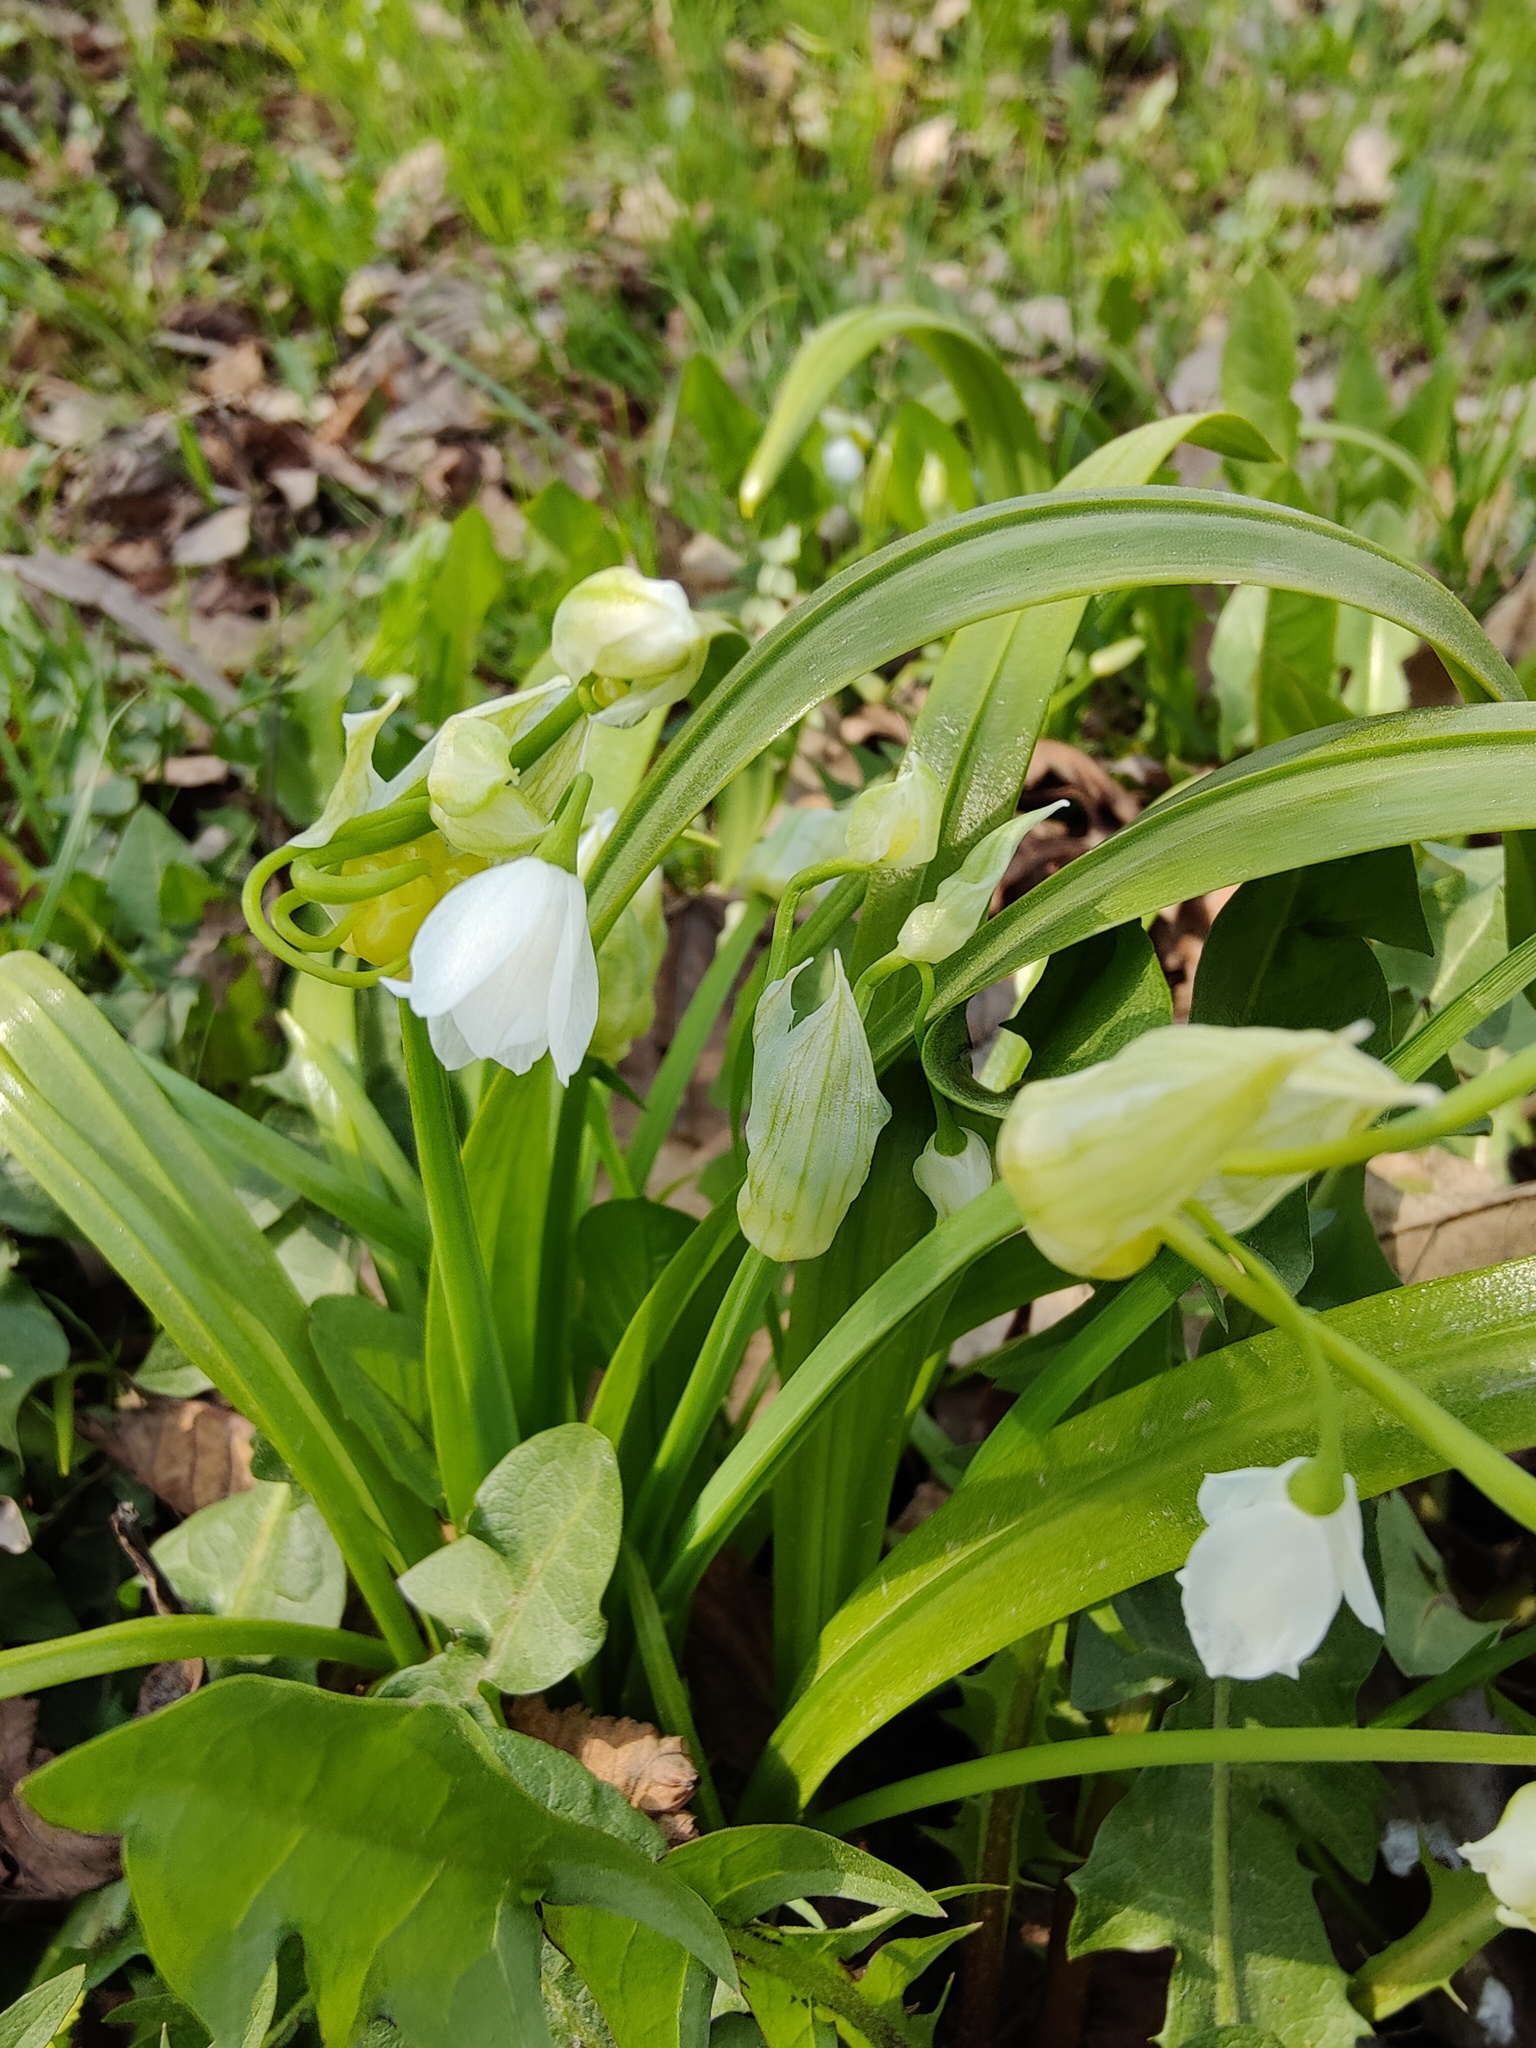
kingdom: Plantae
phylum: Tracheophyta
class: Liliopsida
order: Asparagales
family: Amaryllidaceae
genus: Allium
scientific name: Allium paradoxum
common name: Few-flowered garlic
